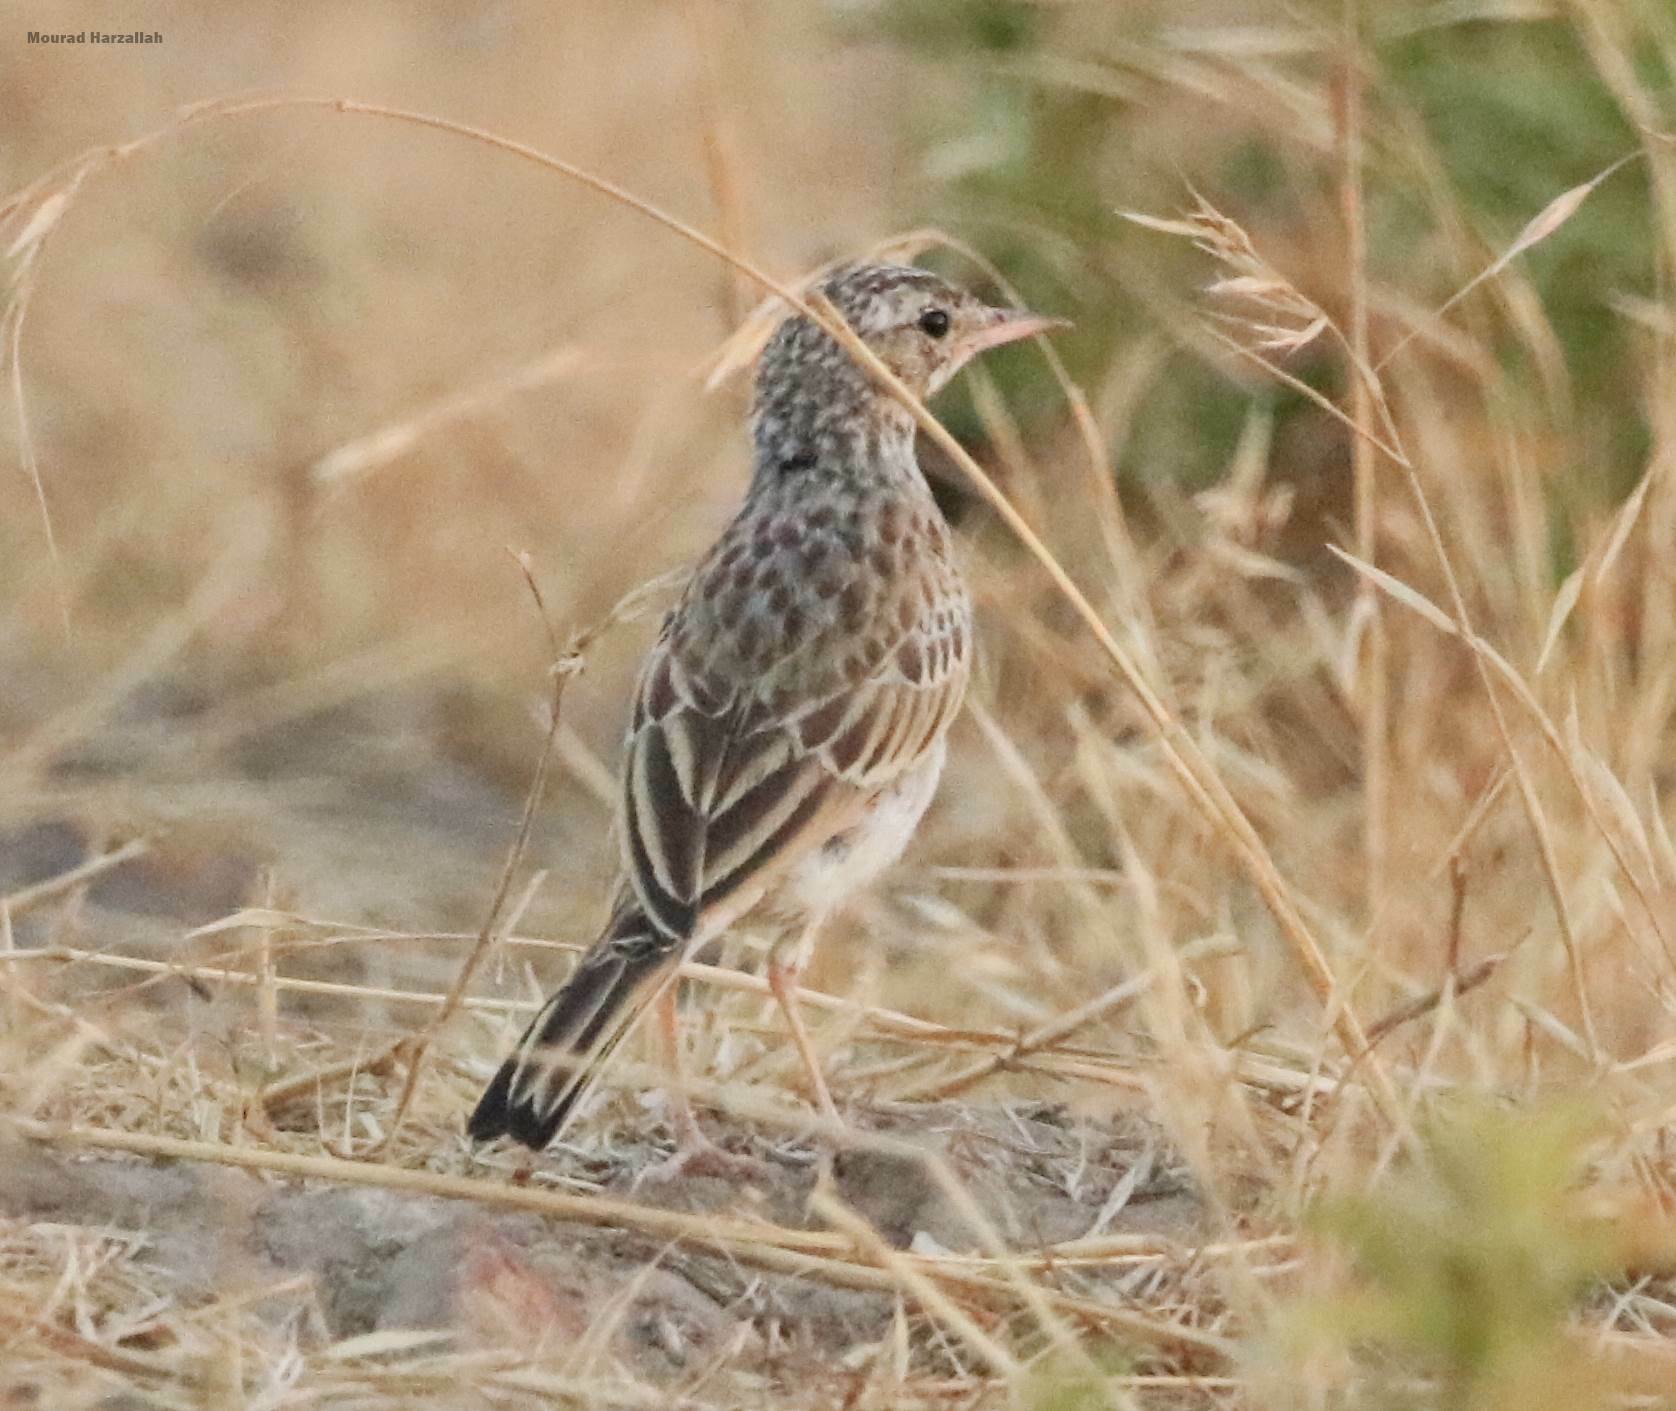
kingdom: Animalia
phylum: Chordata
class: Aves
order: Passeriformes
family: Motacillidae
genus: Anthus
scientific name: Anthus campestris
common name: Tawny pipit
